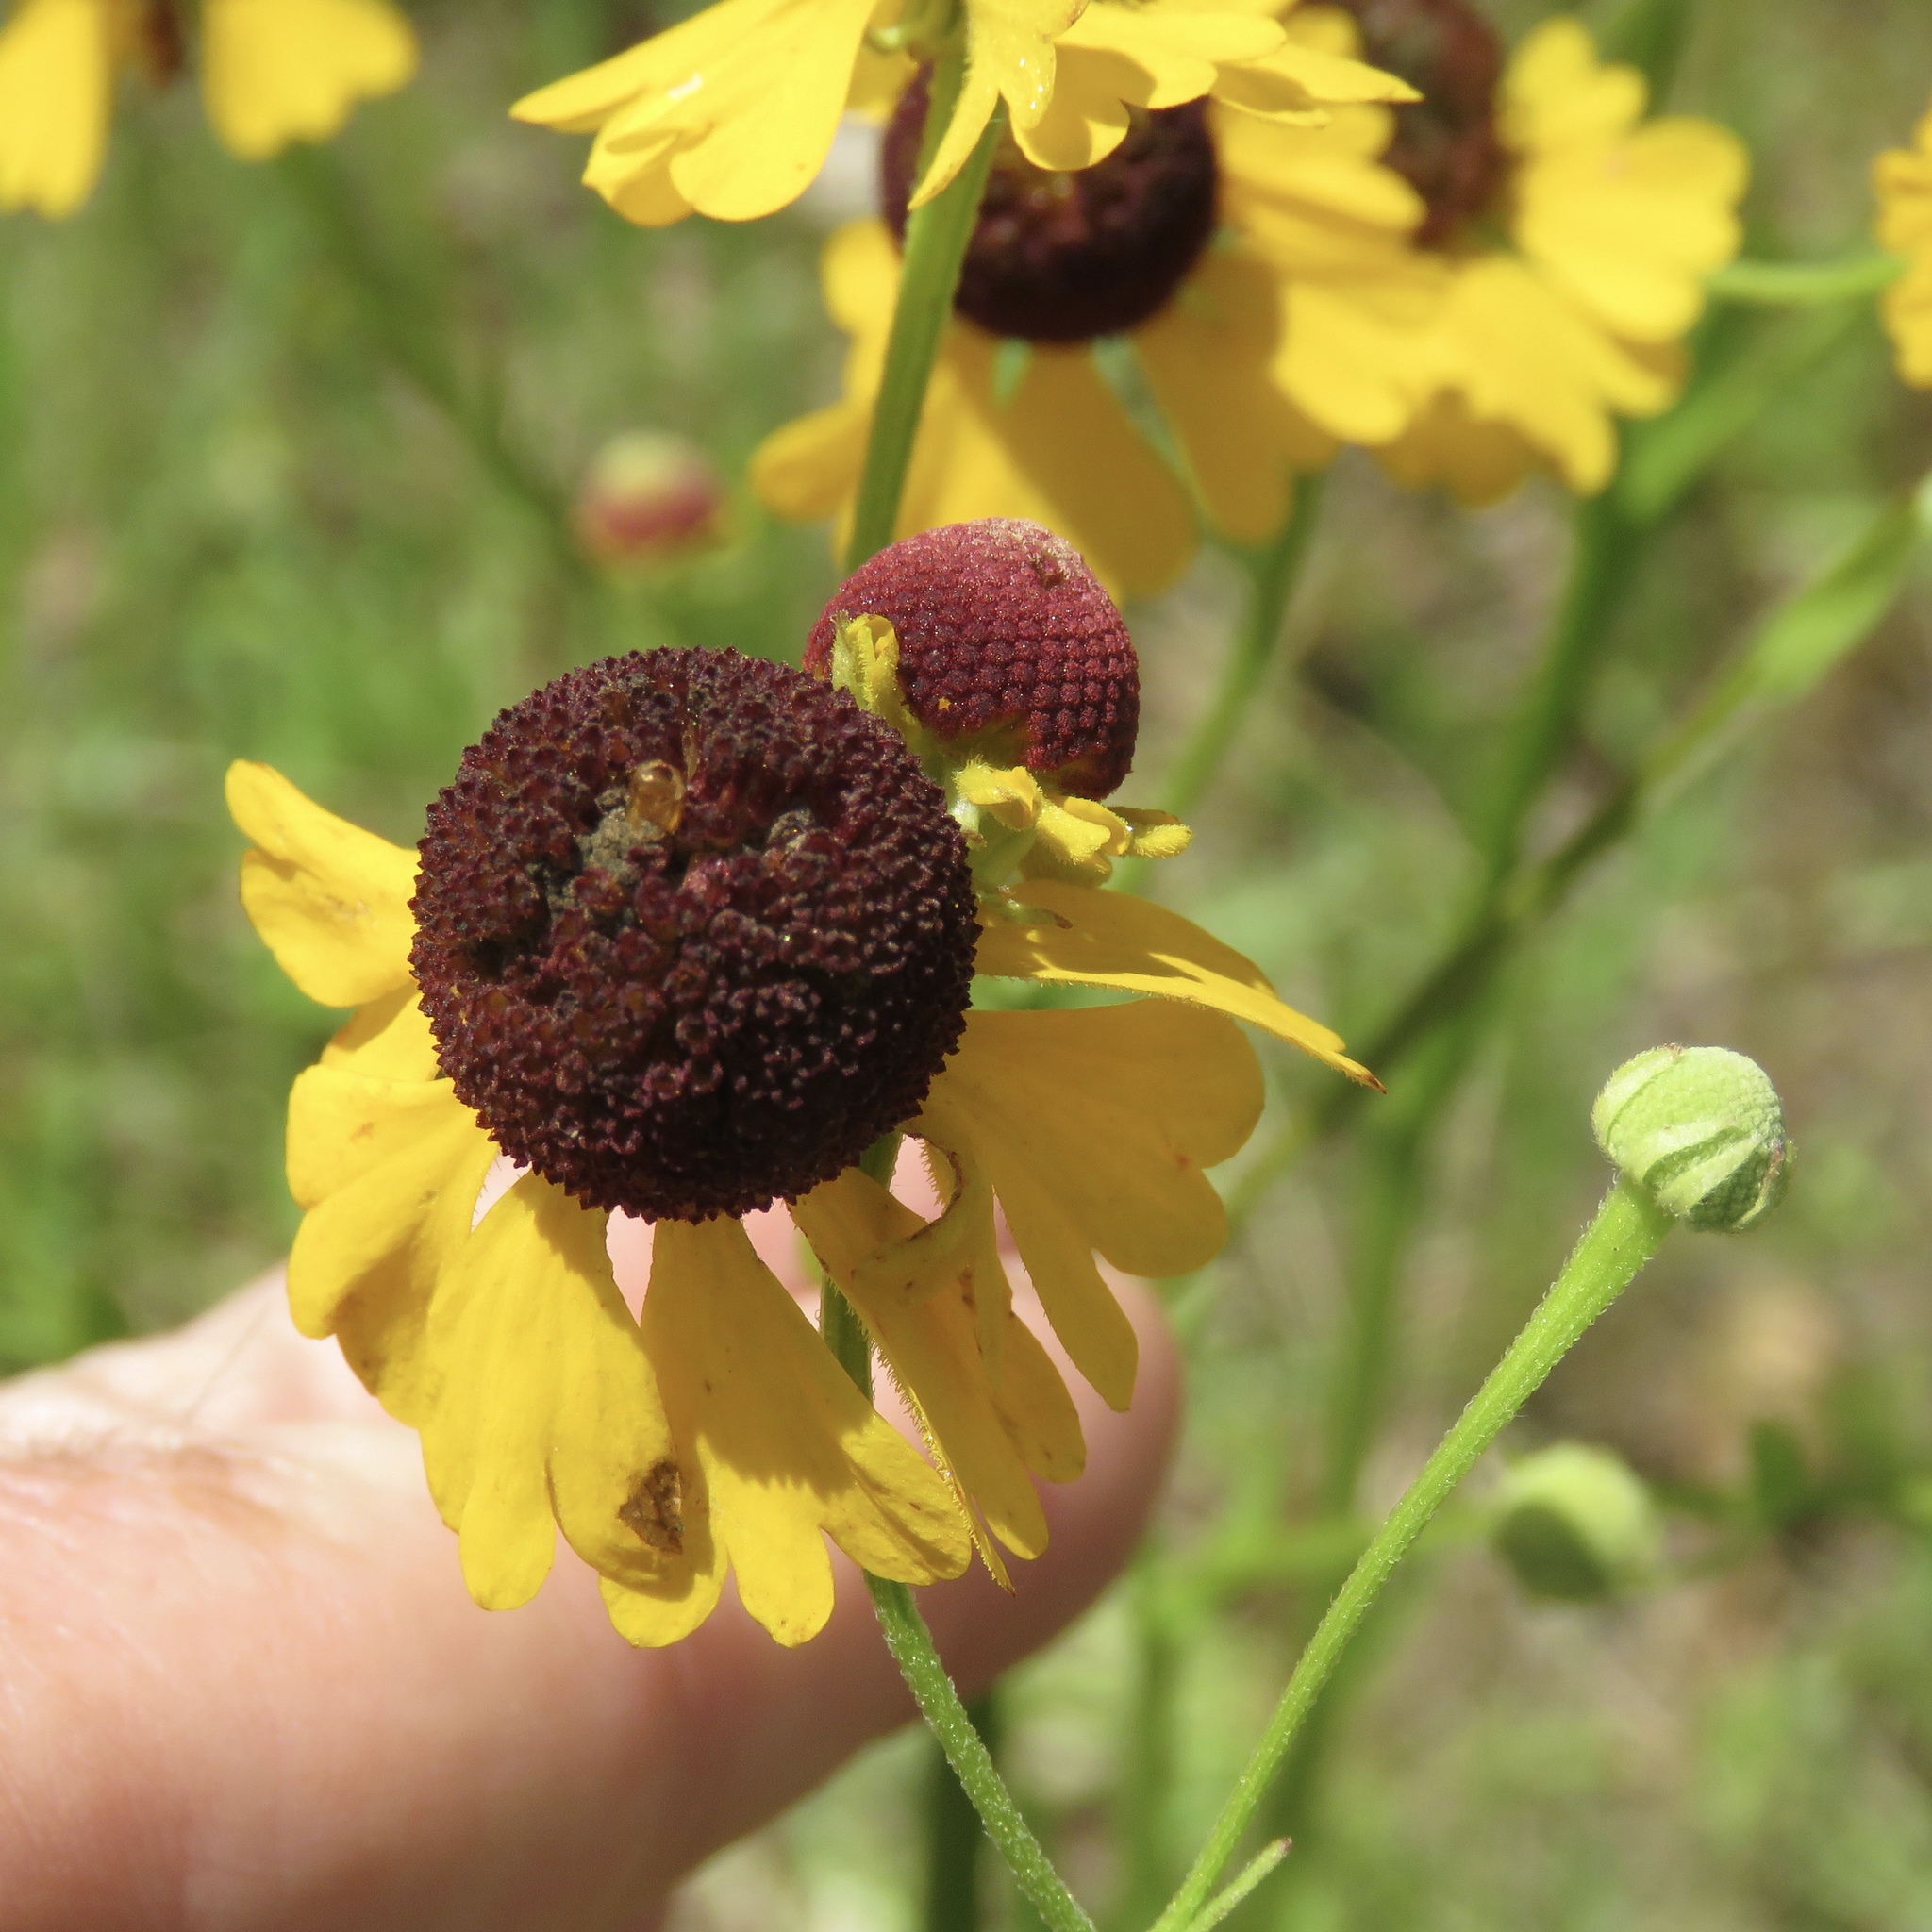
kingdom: Plantae
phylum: Tracheophyta
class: Magnoliopsida
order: Asterales
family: Asteraceae
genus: Helenium
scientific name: Helenium flexuosum
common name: Naked-flowered sneezeweed
